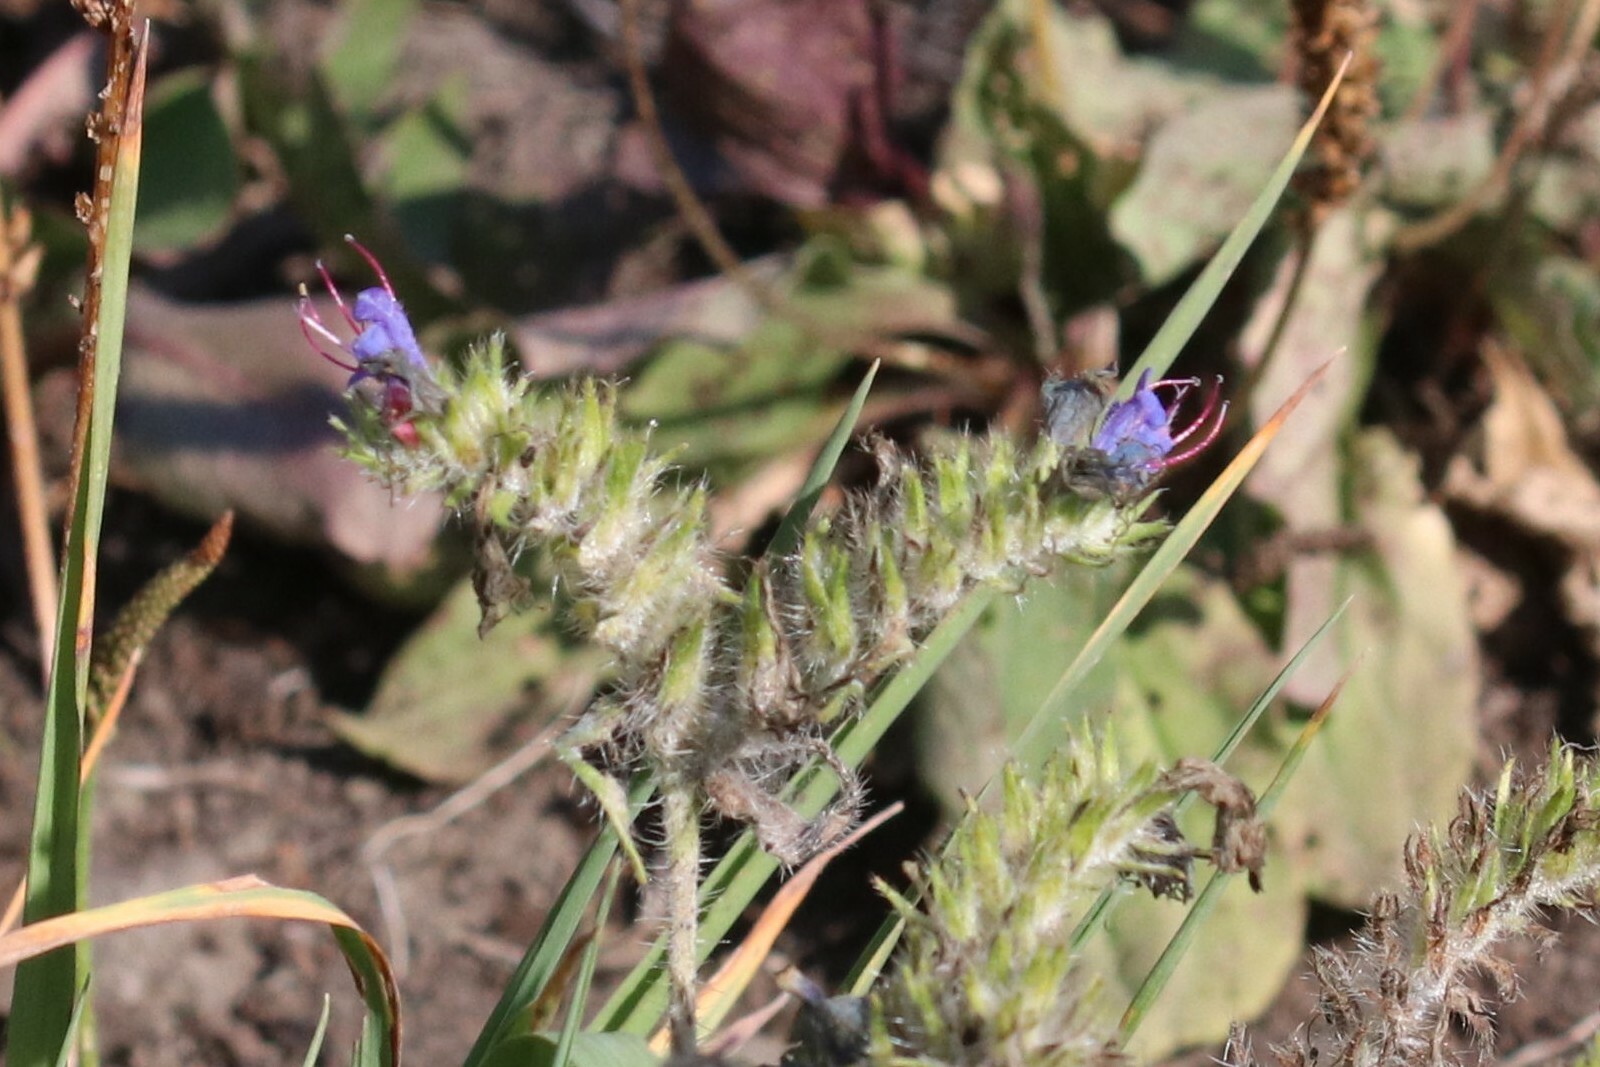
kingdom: Plantae
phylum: Tracheophyta
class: Magnoliopsida
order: Boraginales
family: Boraginaceae
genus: Echium
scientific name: Echium vulgare
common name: Common viper's bugloss
